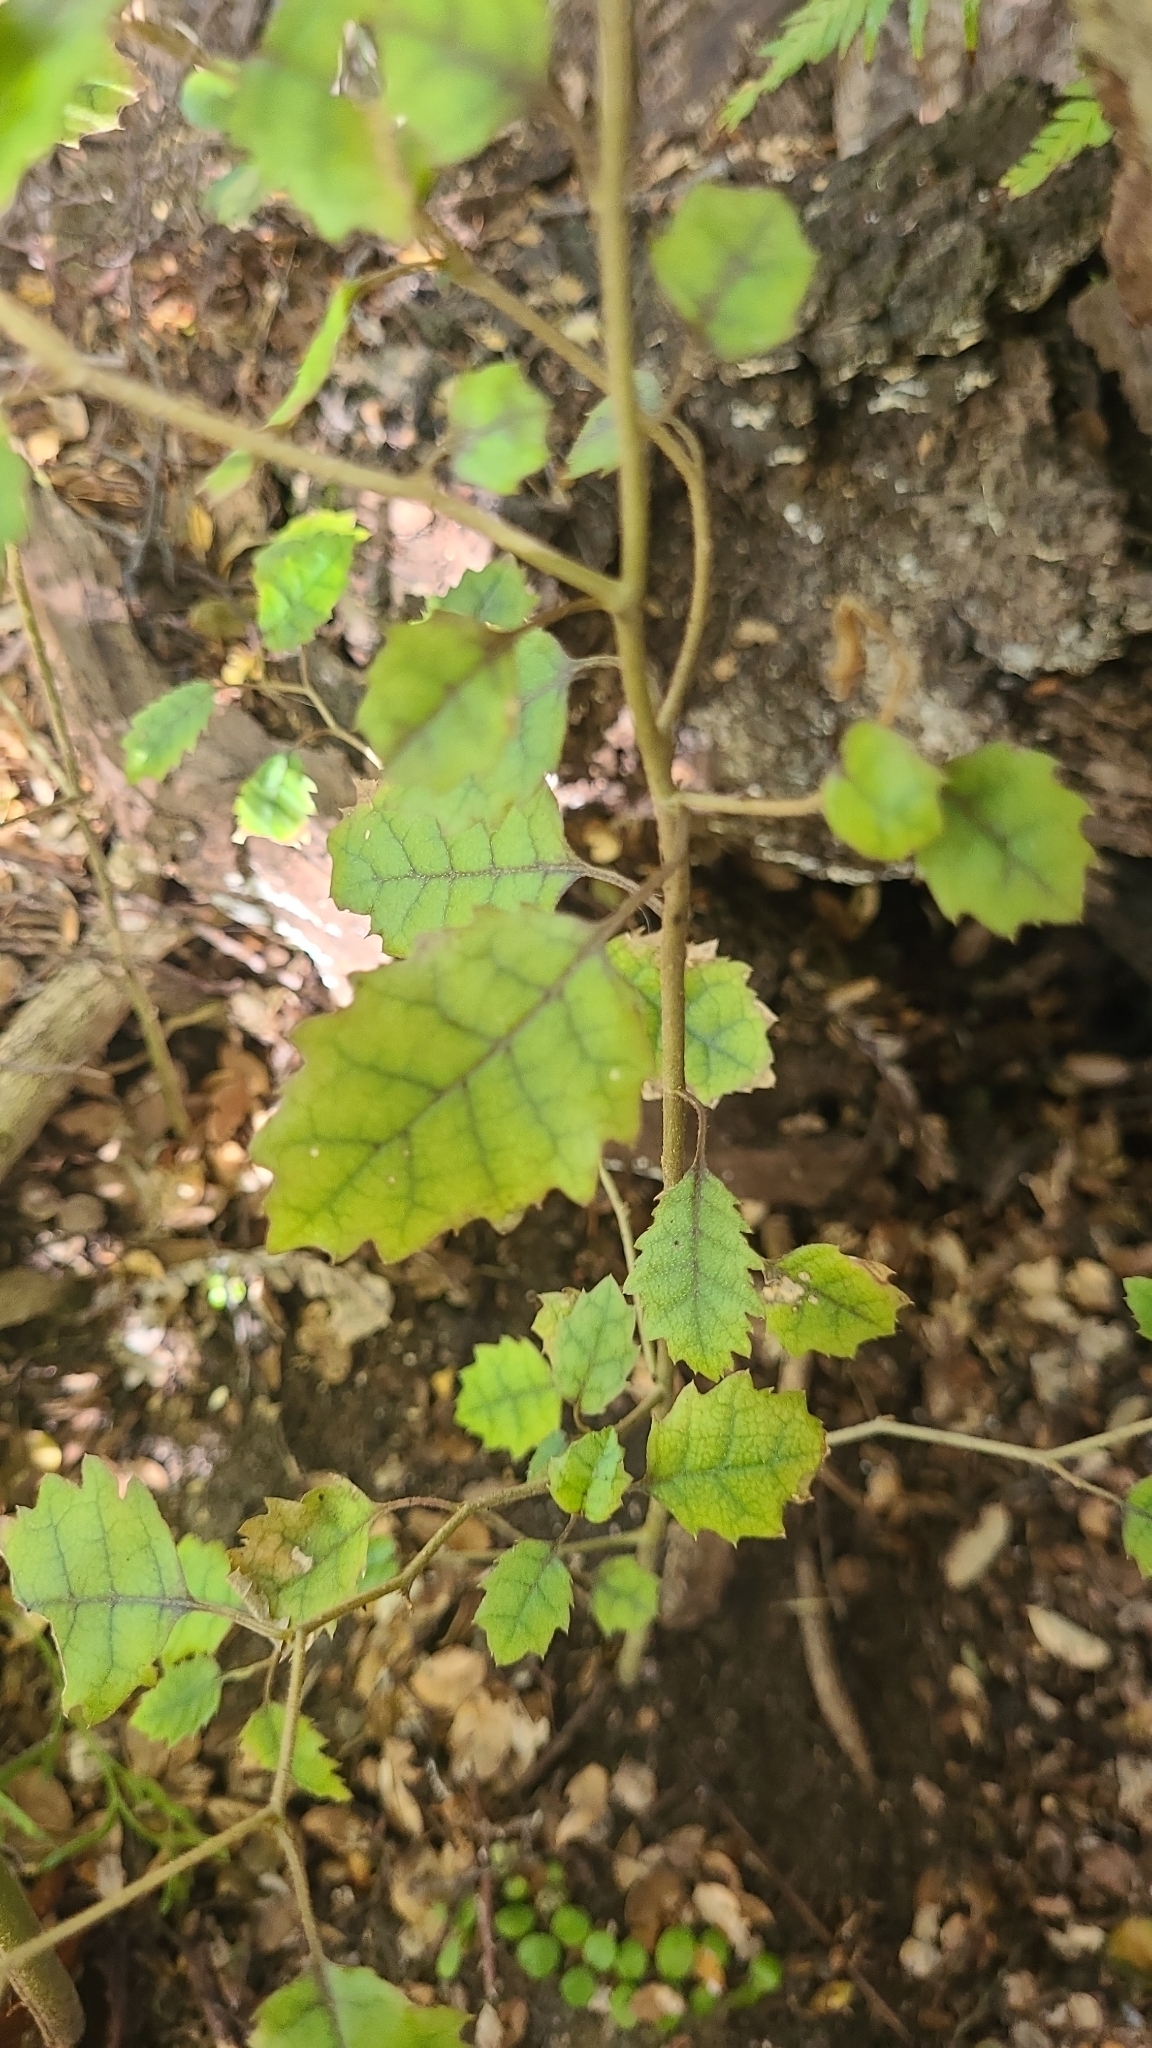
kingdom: Plantae
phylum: Tracheophyta
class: Magnoliopsida
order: Asterales
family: Rousseaceae
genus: Carpodetus
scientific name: Carpodetus serratus
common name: White mapau
